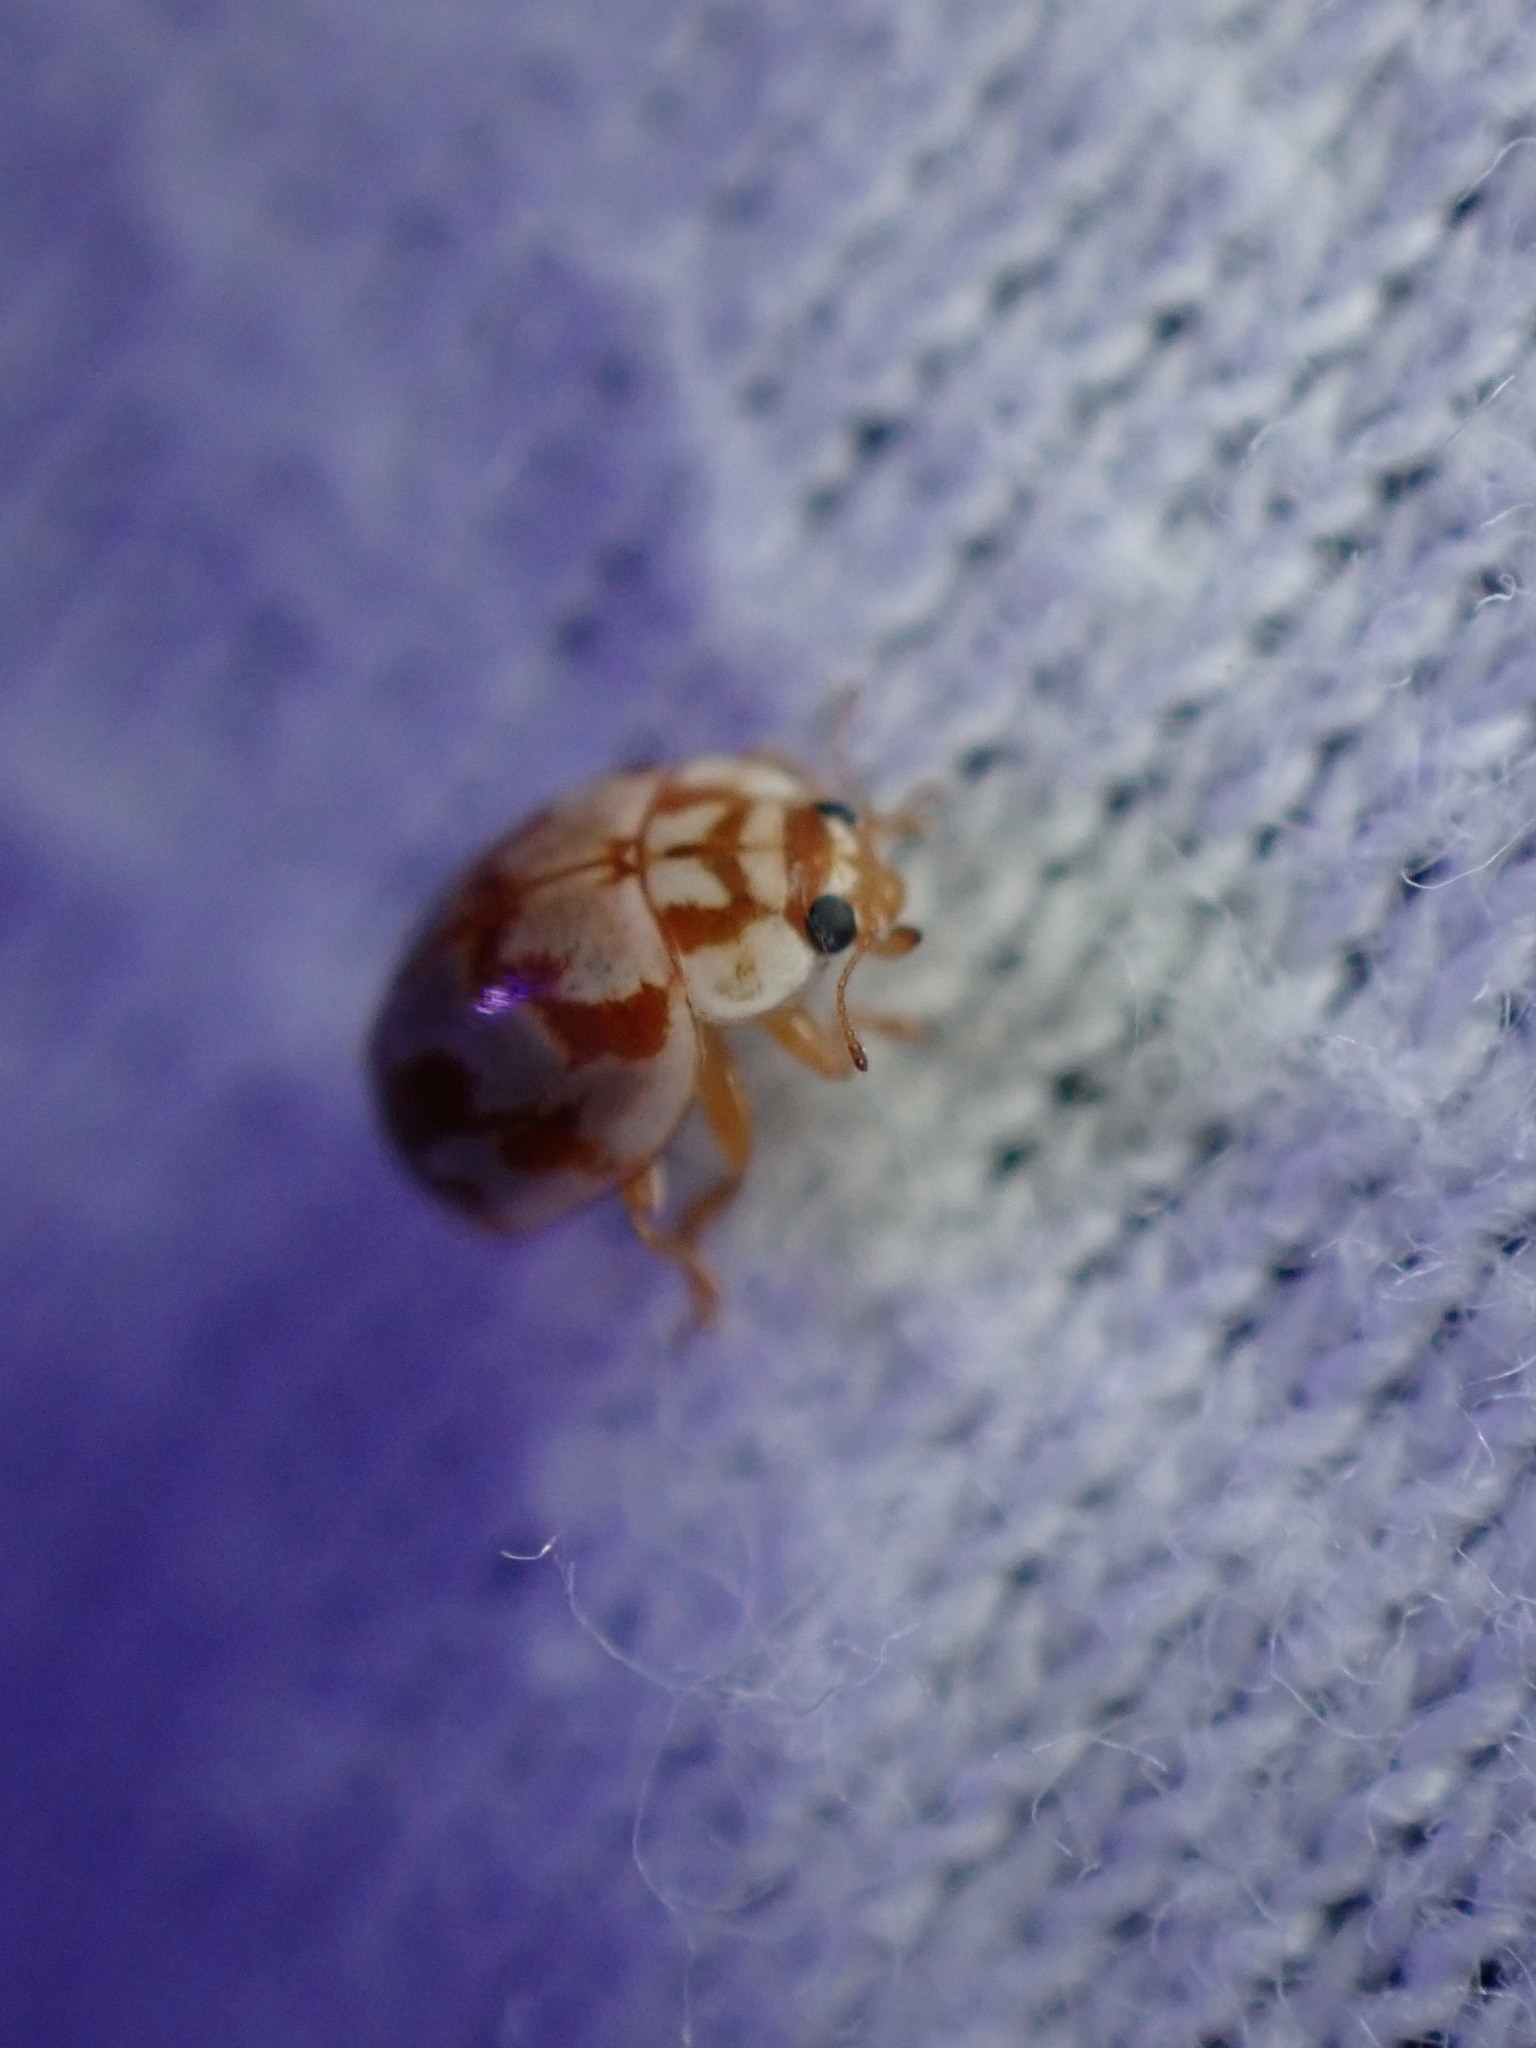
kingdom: Animalia
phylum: Arthropoda
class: Insecta
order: Coleoptera
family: Coccinellidae
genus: Myrrha
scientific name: Myrrha octodecimguttata
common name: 18-spot ladybird
